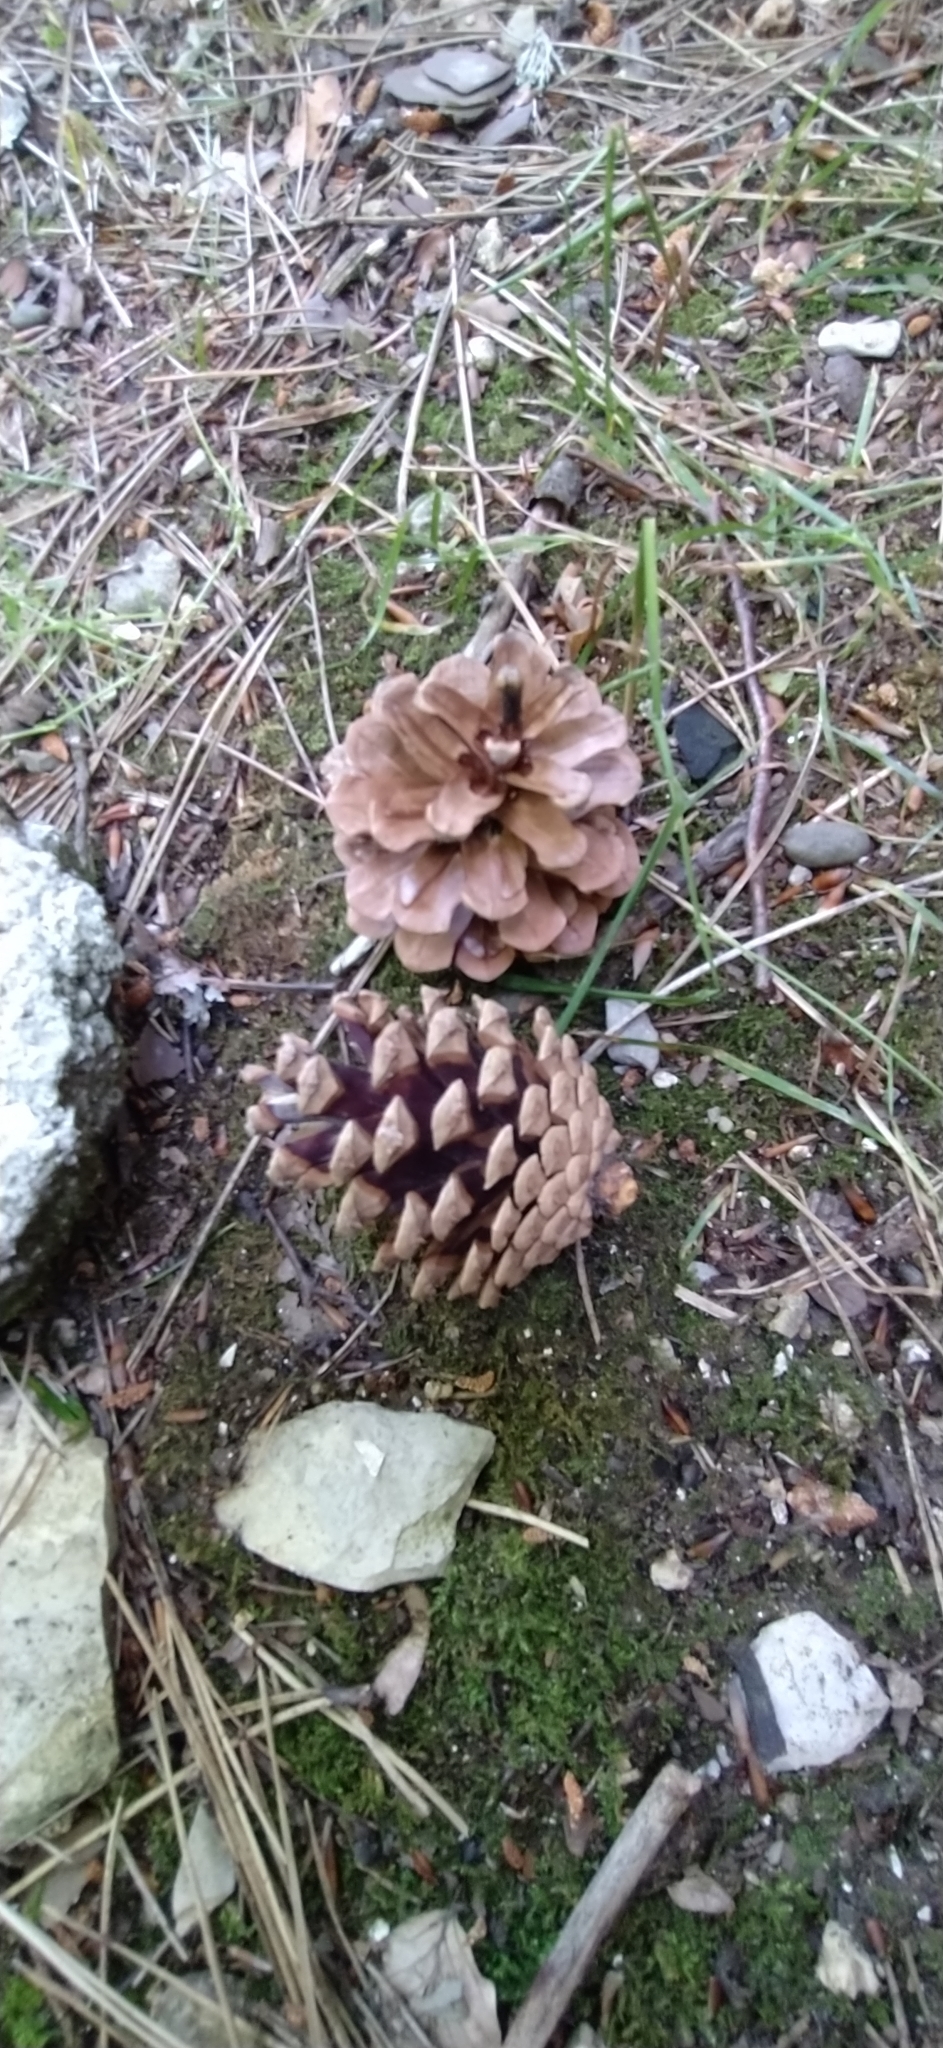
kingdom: Plantae
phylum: Tracheophyta
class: Pinopsida
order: Pinales
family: Pinaceae
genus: Pinus
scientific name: Pinus nigra
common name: Austrian pine
